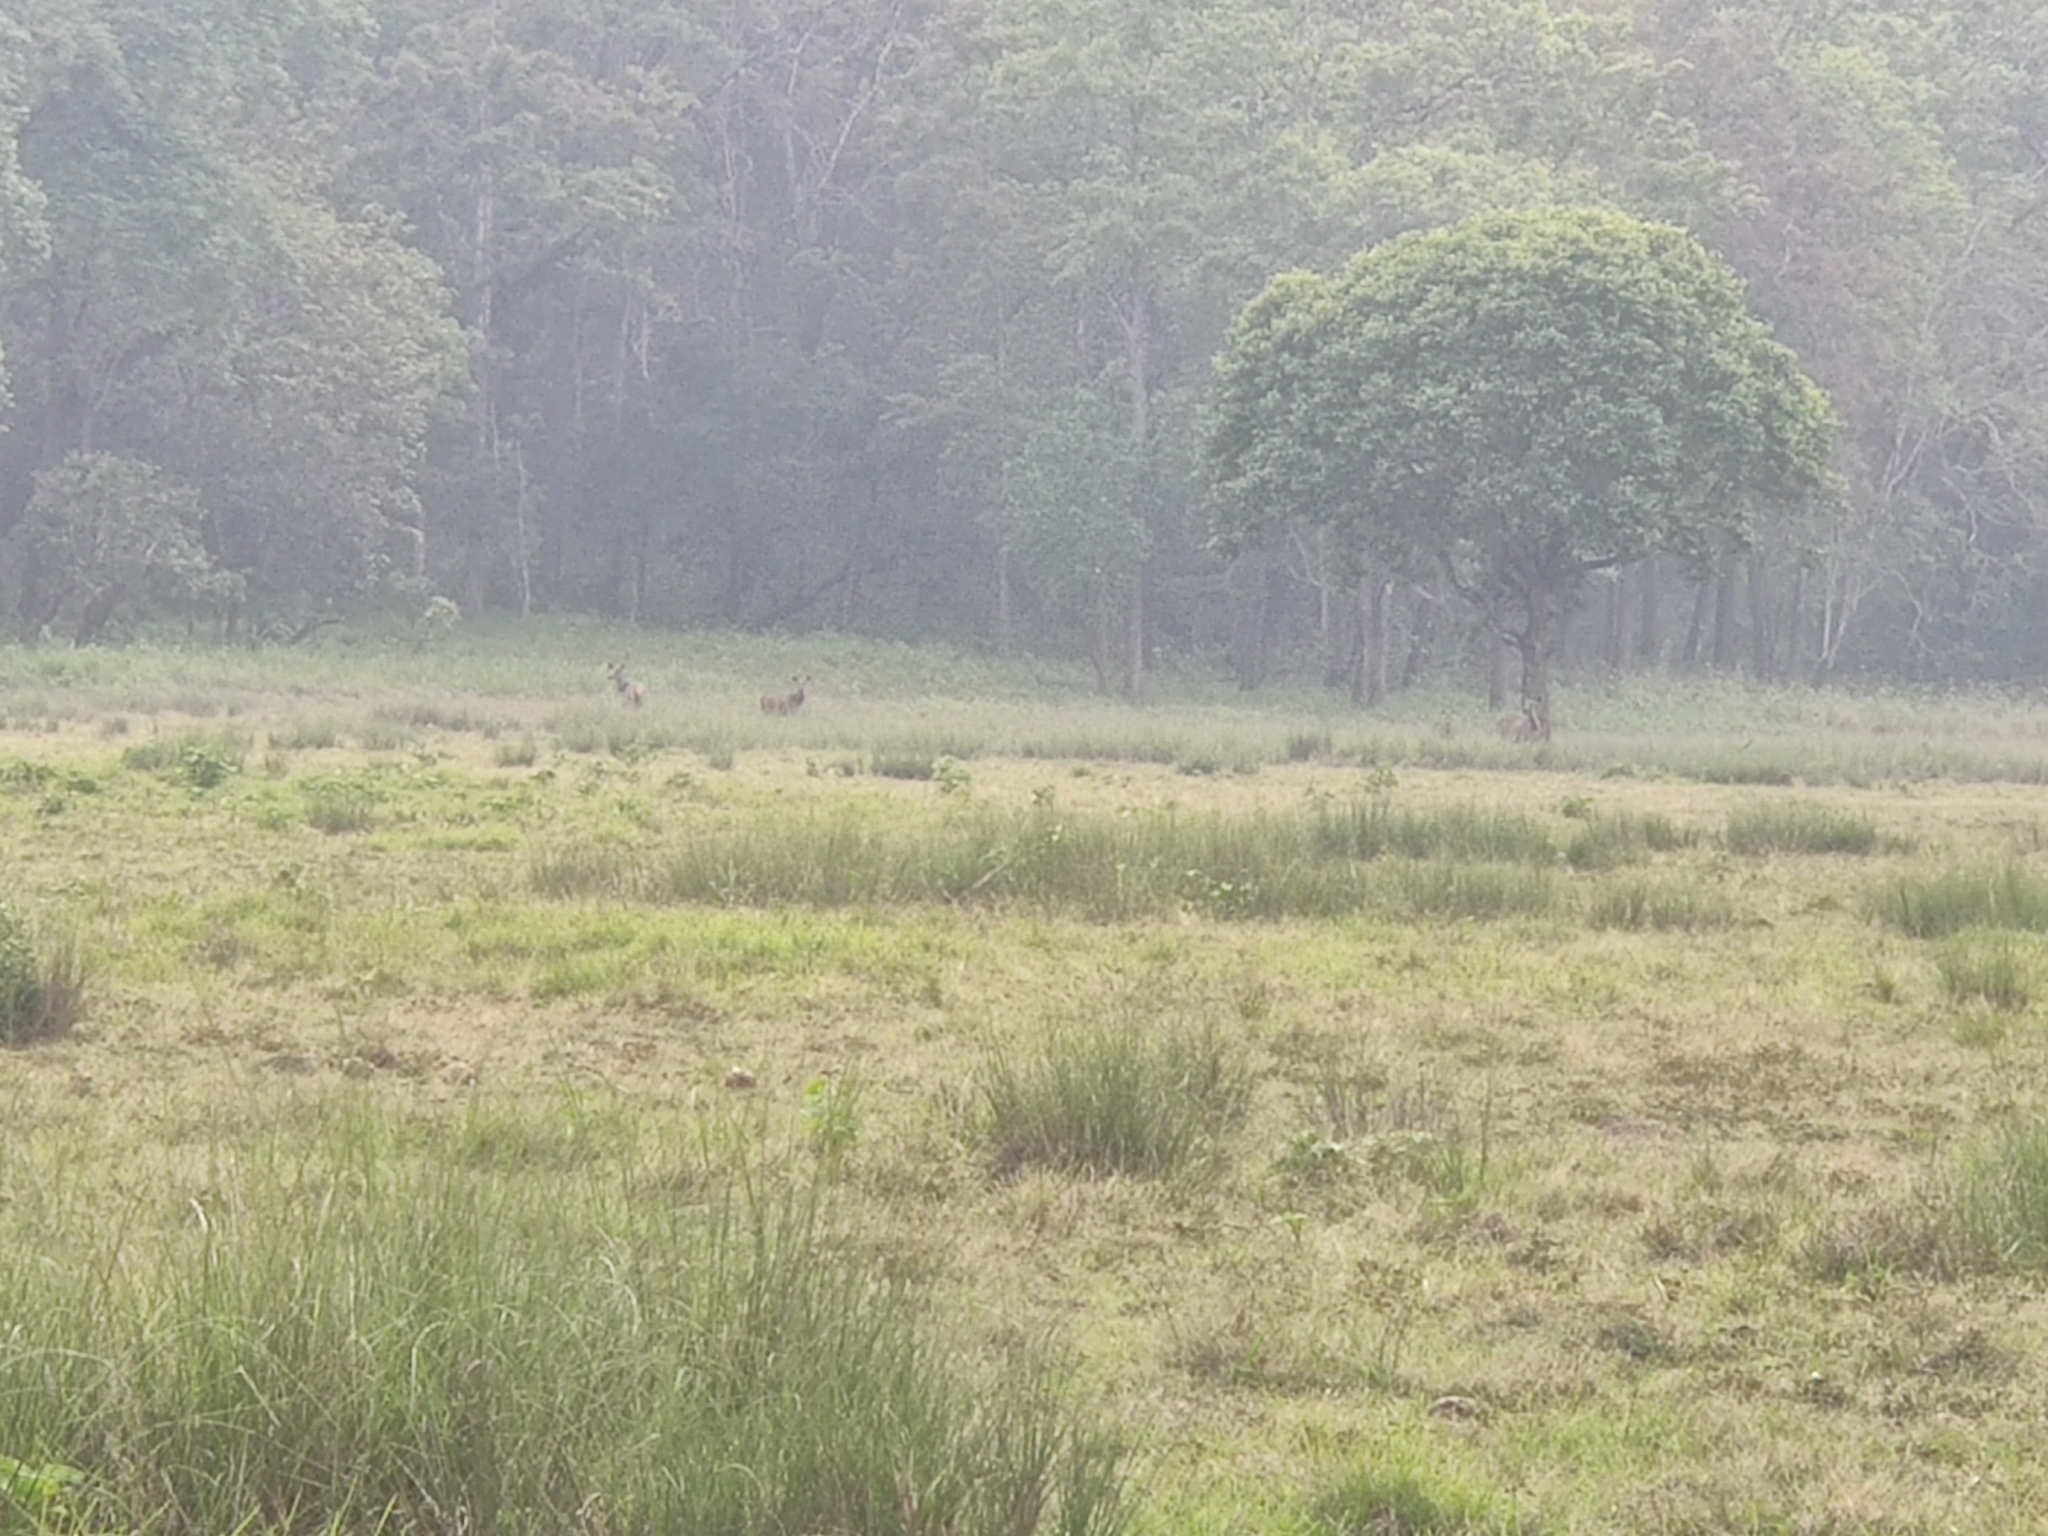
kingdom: Animalia
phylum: Chordata
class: Mammalia
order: Artiodactyla
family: Cervidae
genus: Rusa
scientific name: Rusa unicolor
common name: Sambar
